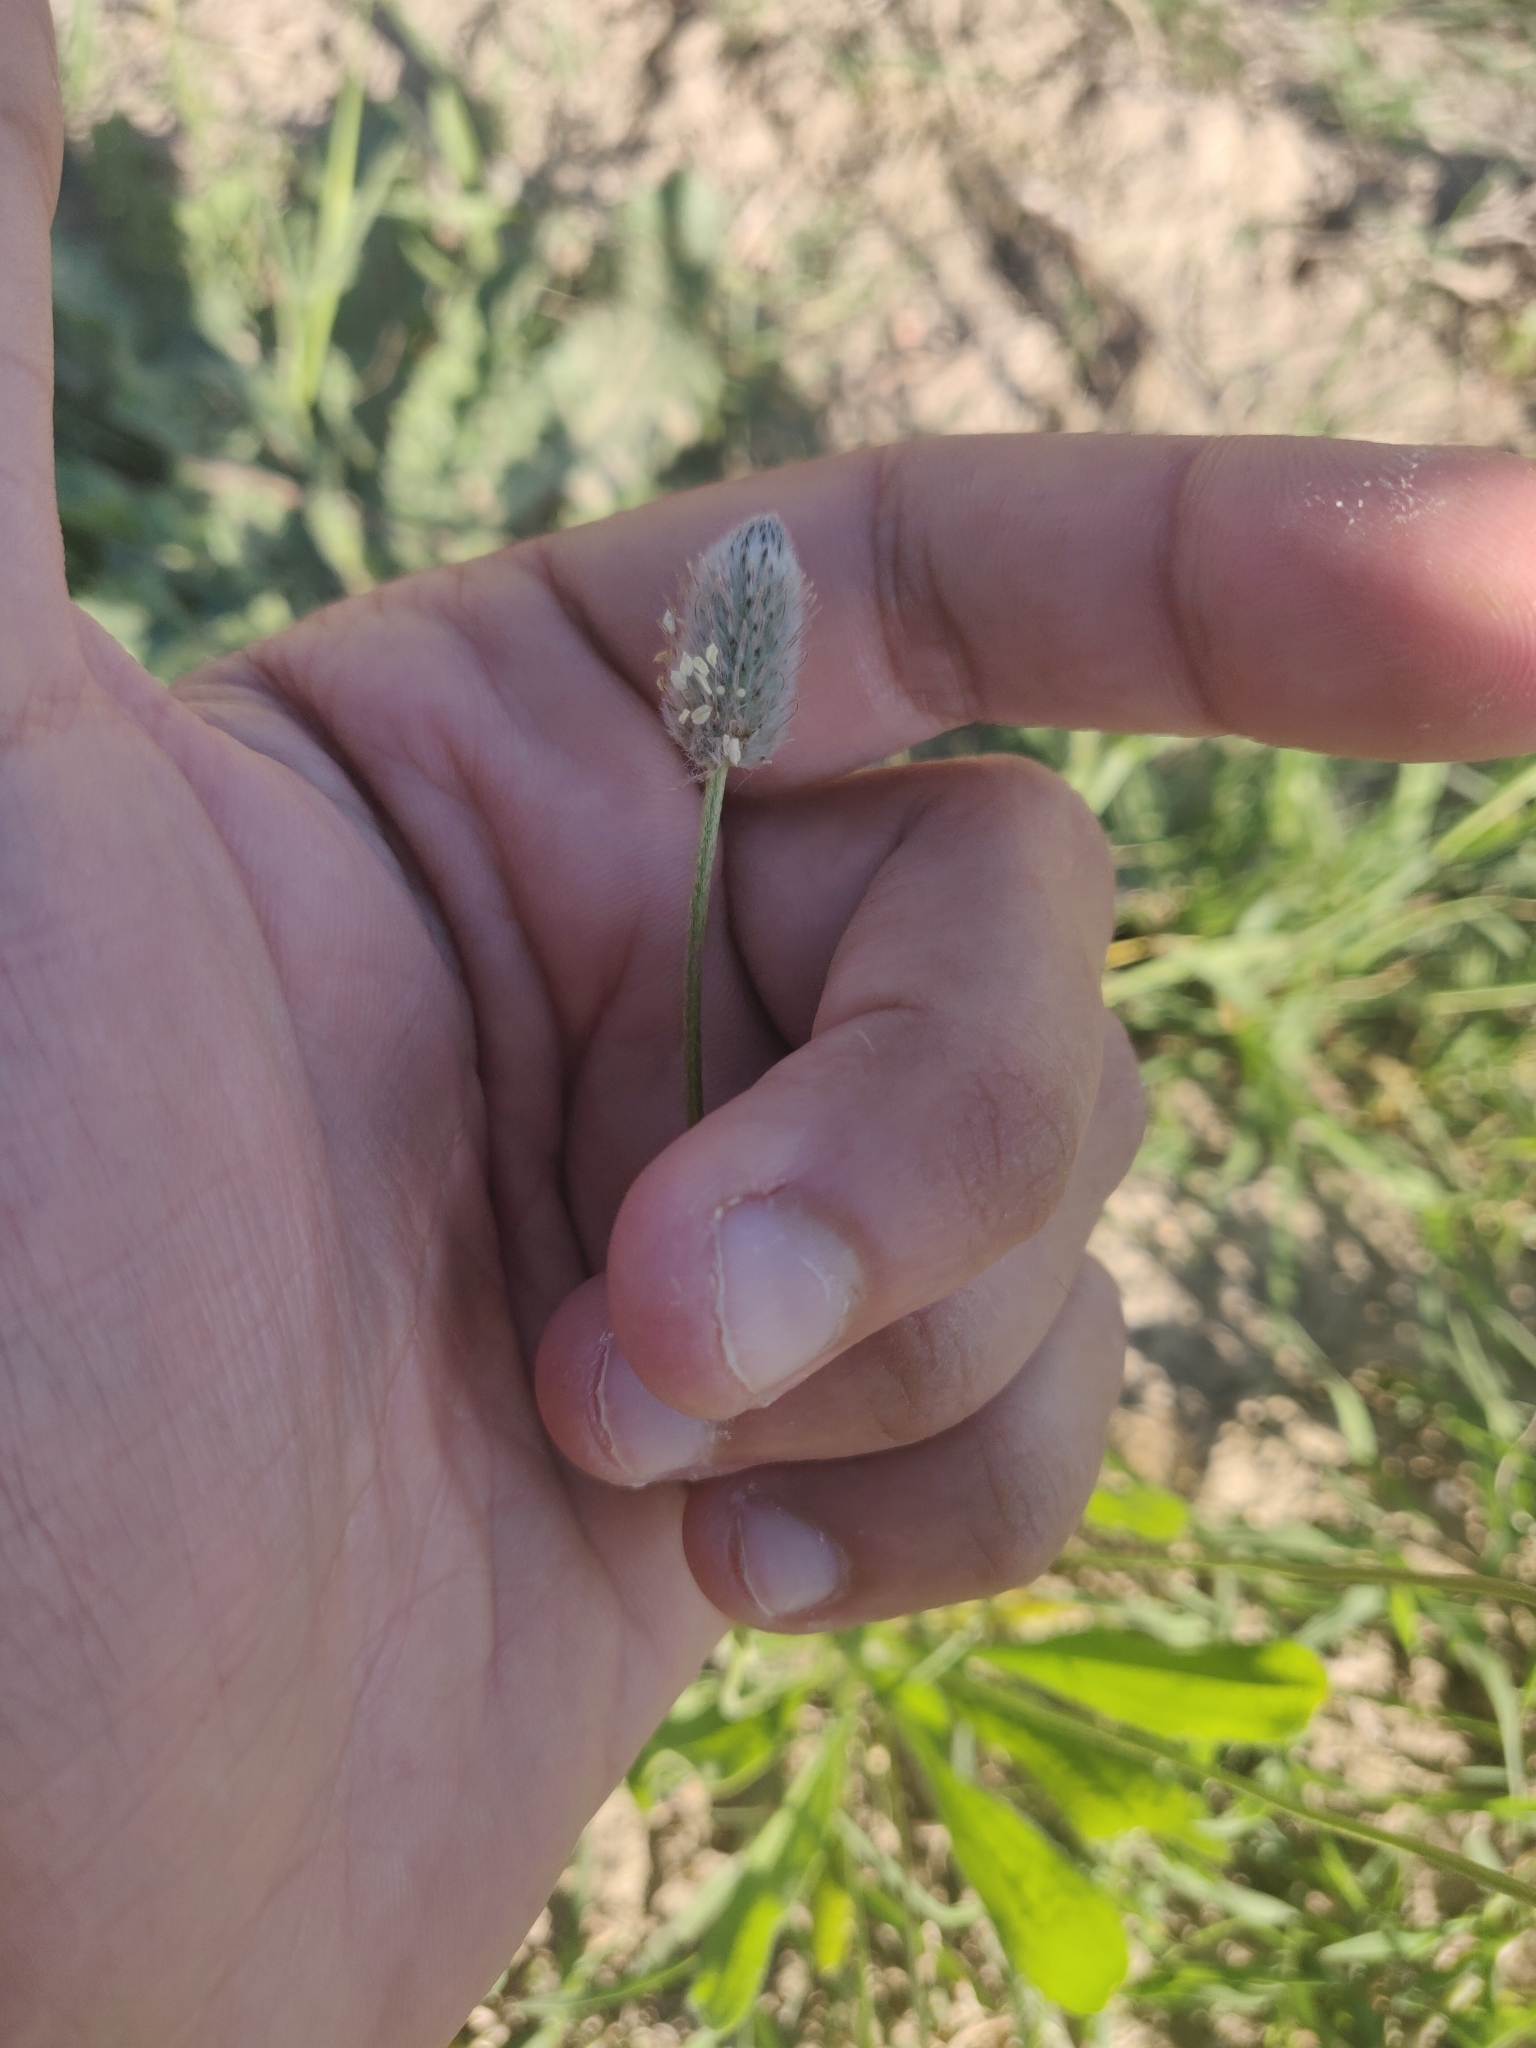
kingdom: Plantae
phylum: Tracheophyta
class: Magnoliopsida
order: Lamiales
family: Plantaginaceae
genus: Plantago
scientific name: Plantago lagopus
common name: Hare-foot plantain
